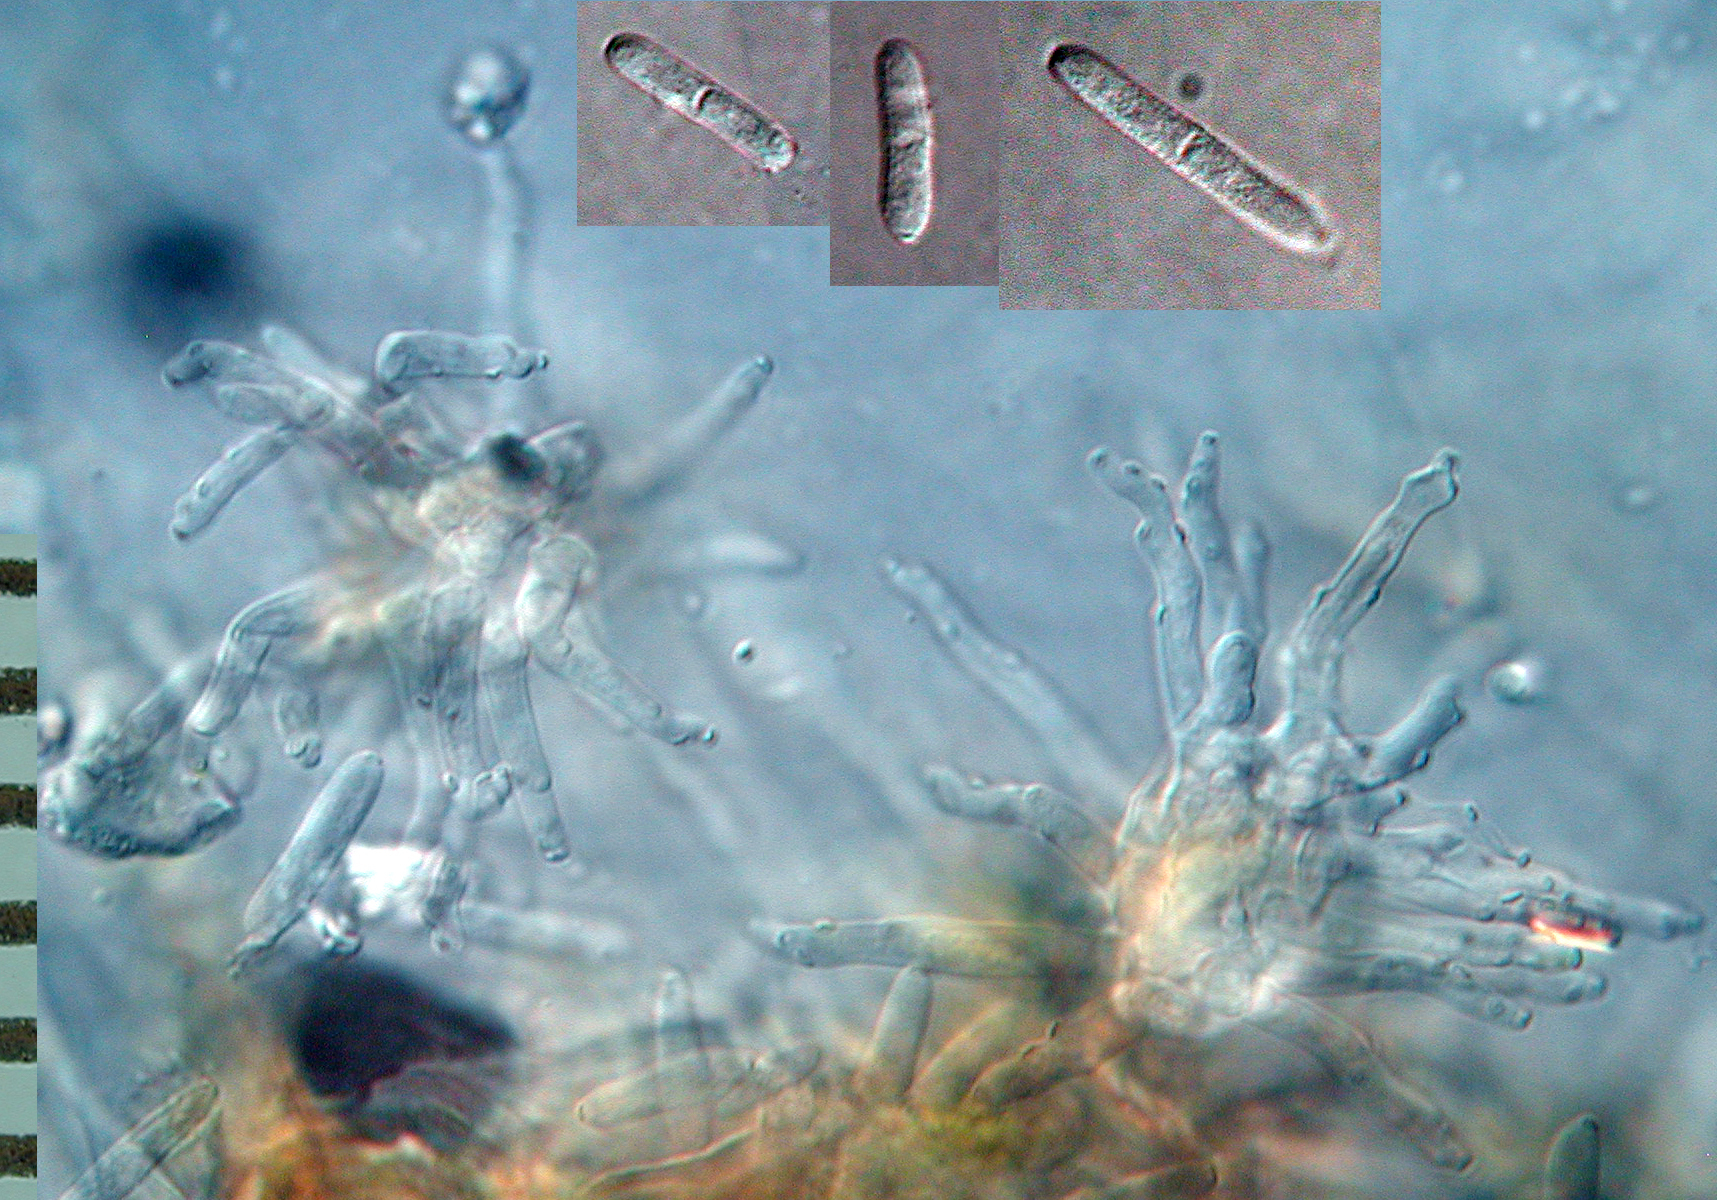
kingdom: Fungi
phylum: Ascomycota
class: Dothideomycetes
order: Capnodiales
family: Mycosphaerellaceae
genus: Ramularia
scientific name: Ramularia helminthiae
